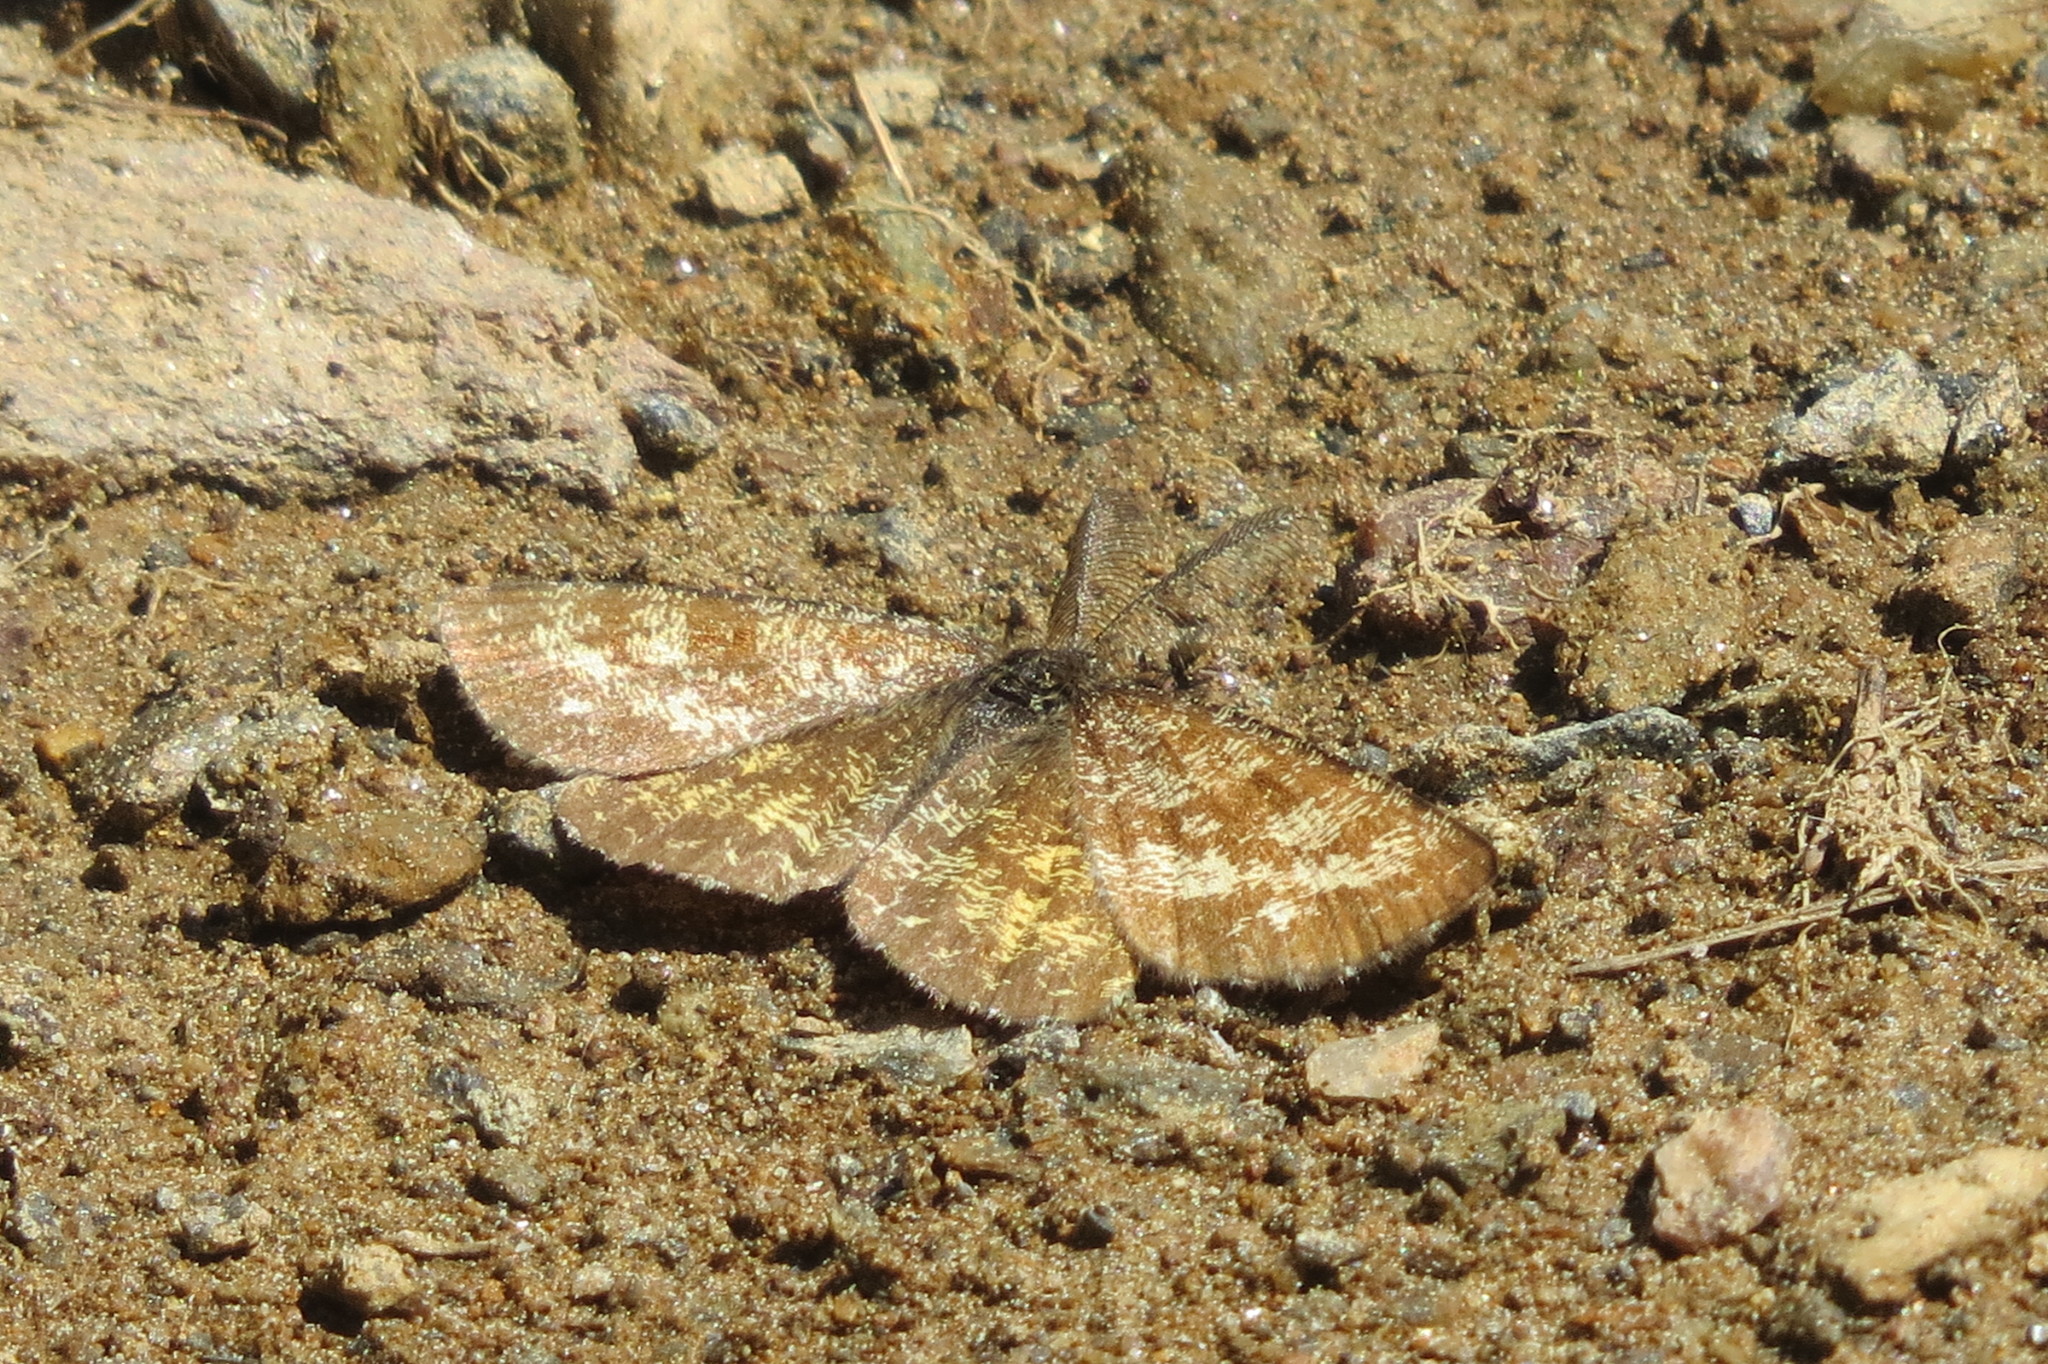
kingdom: Animalia
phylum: Arthropoda
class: Insecta
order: Lepidoptera
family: Geometridae
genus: Ematurga
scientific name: Ematurga atomaria
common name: Common heath
